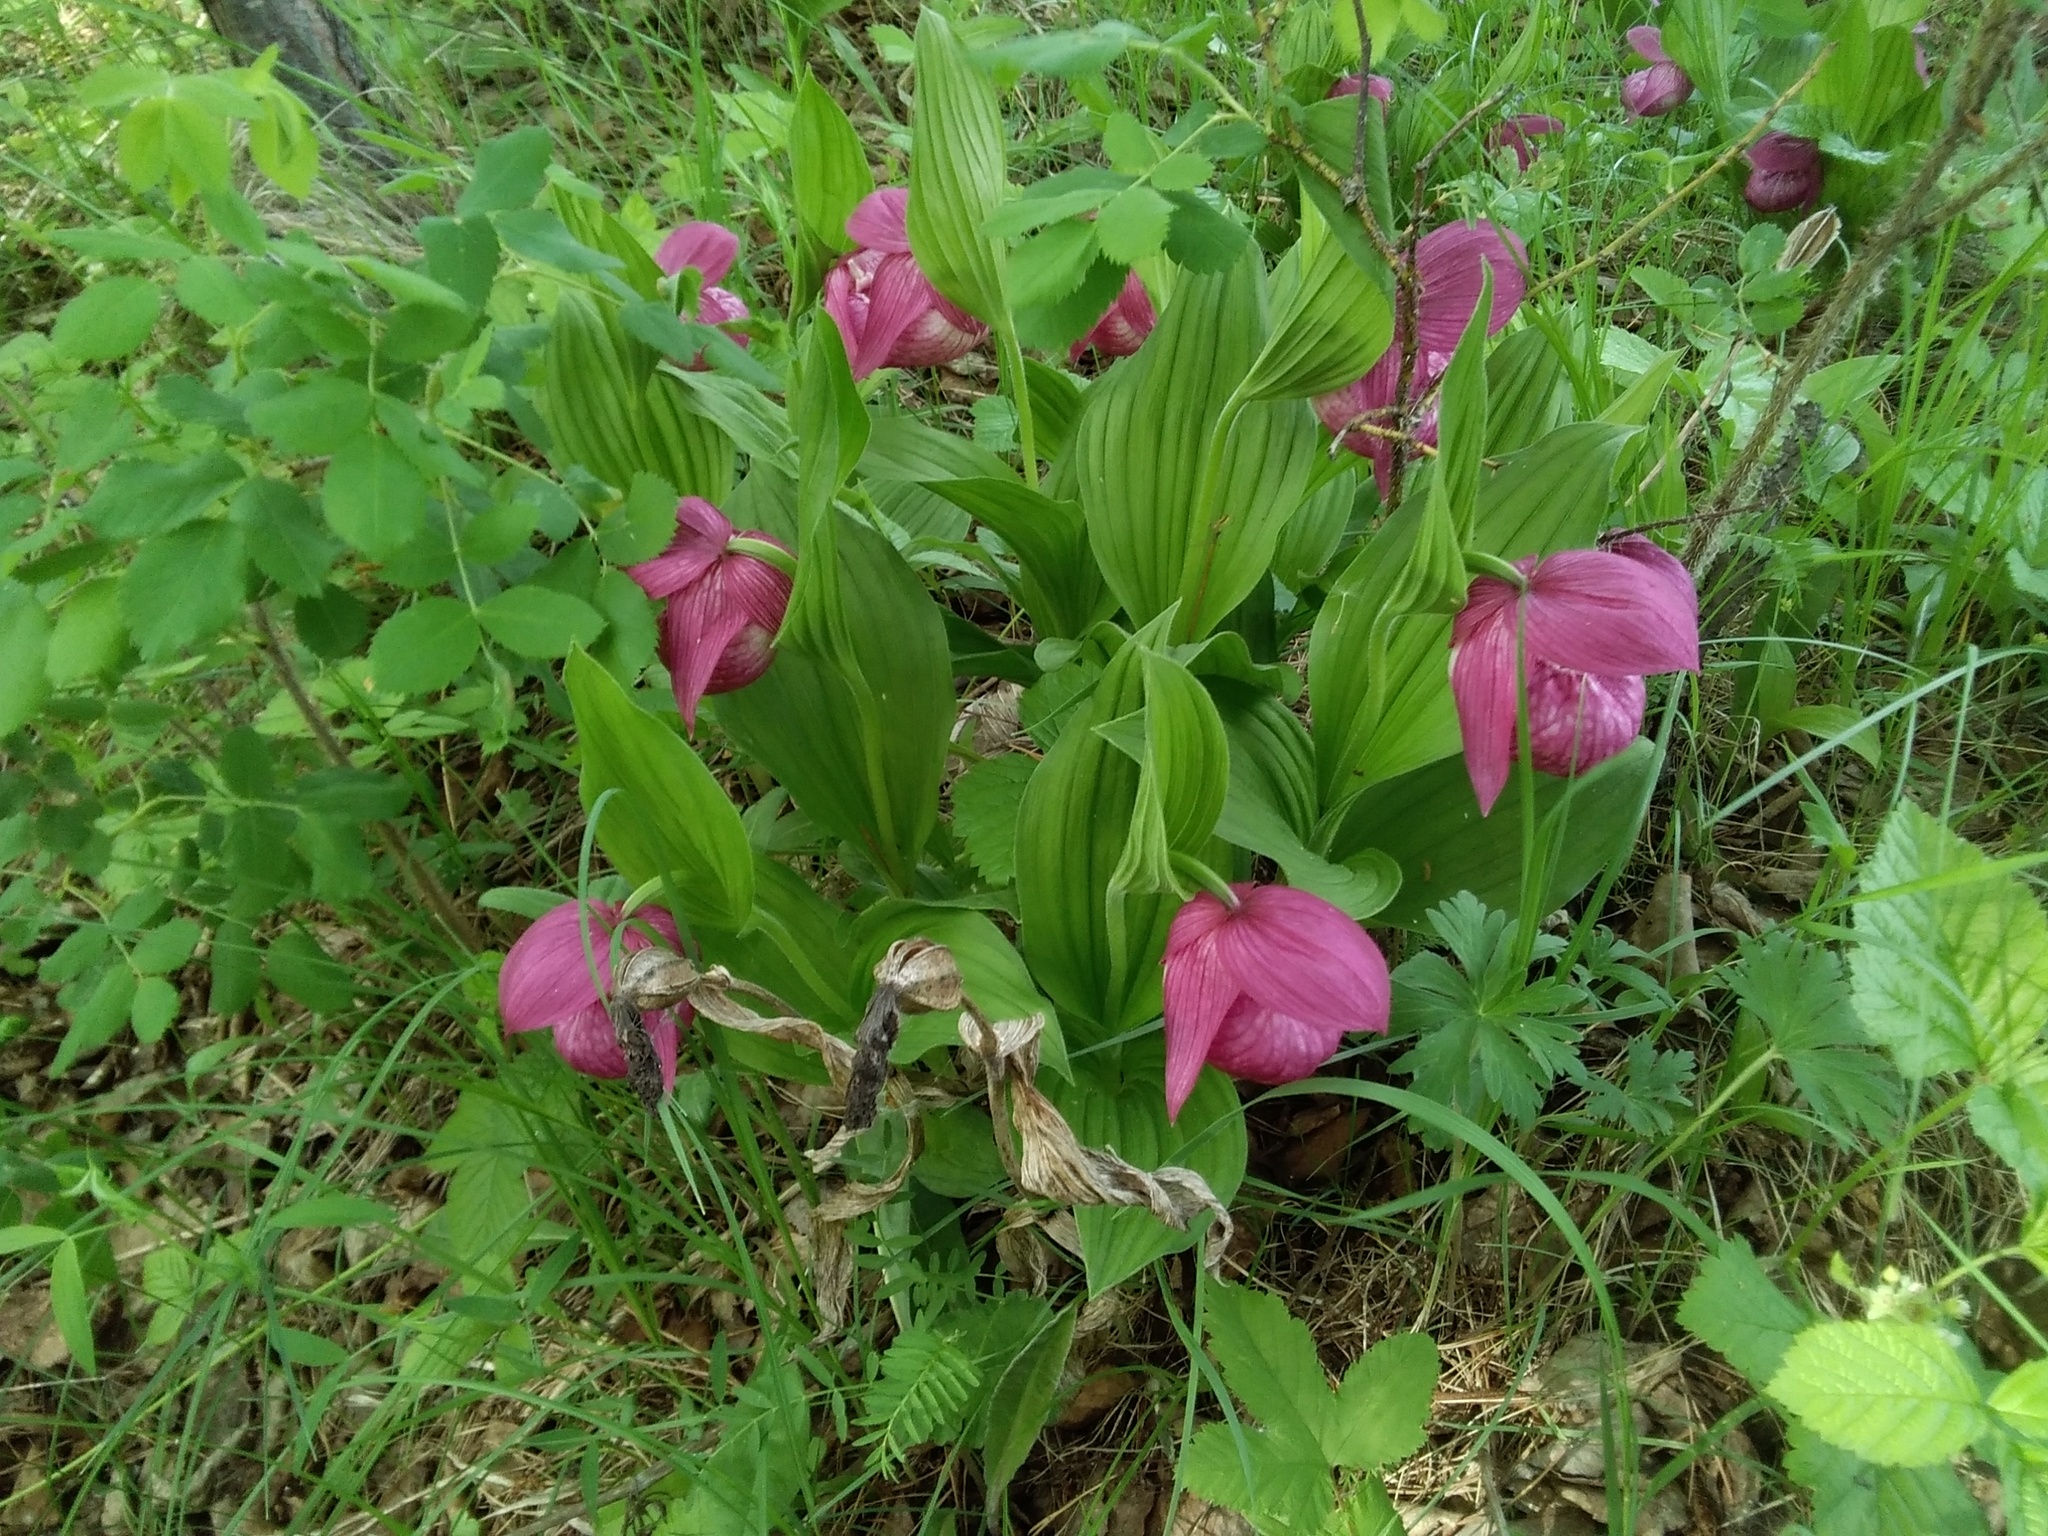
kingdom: Plantae
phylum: Tracheophyta
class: Liliopsida
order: Asparagales
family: Orchidaceae
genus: Cypripedium
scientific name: Cypripedium macranthos
